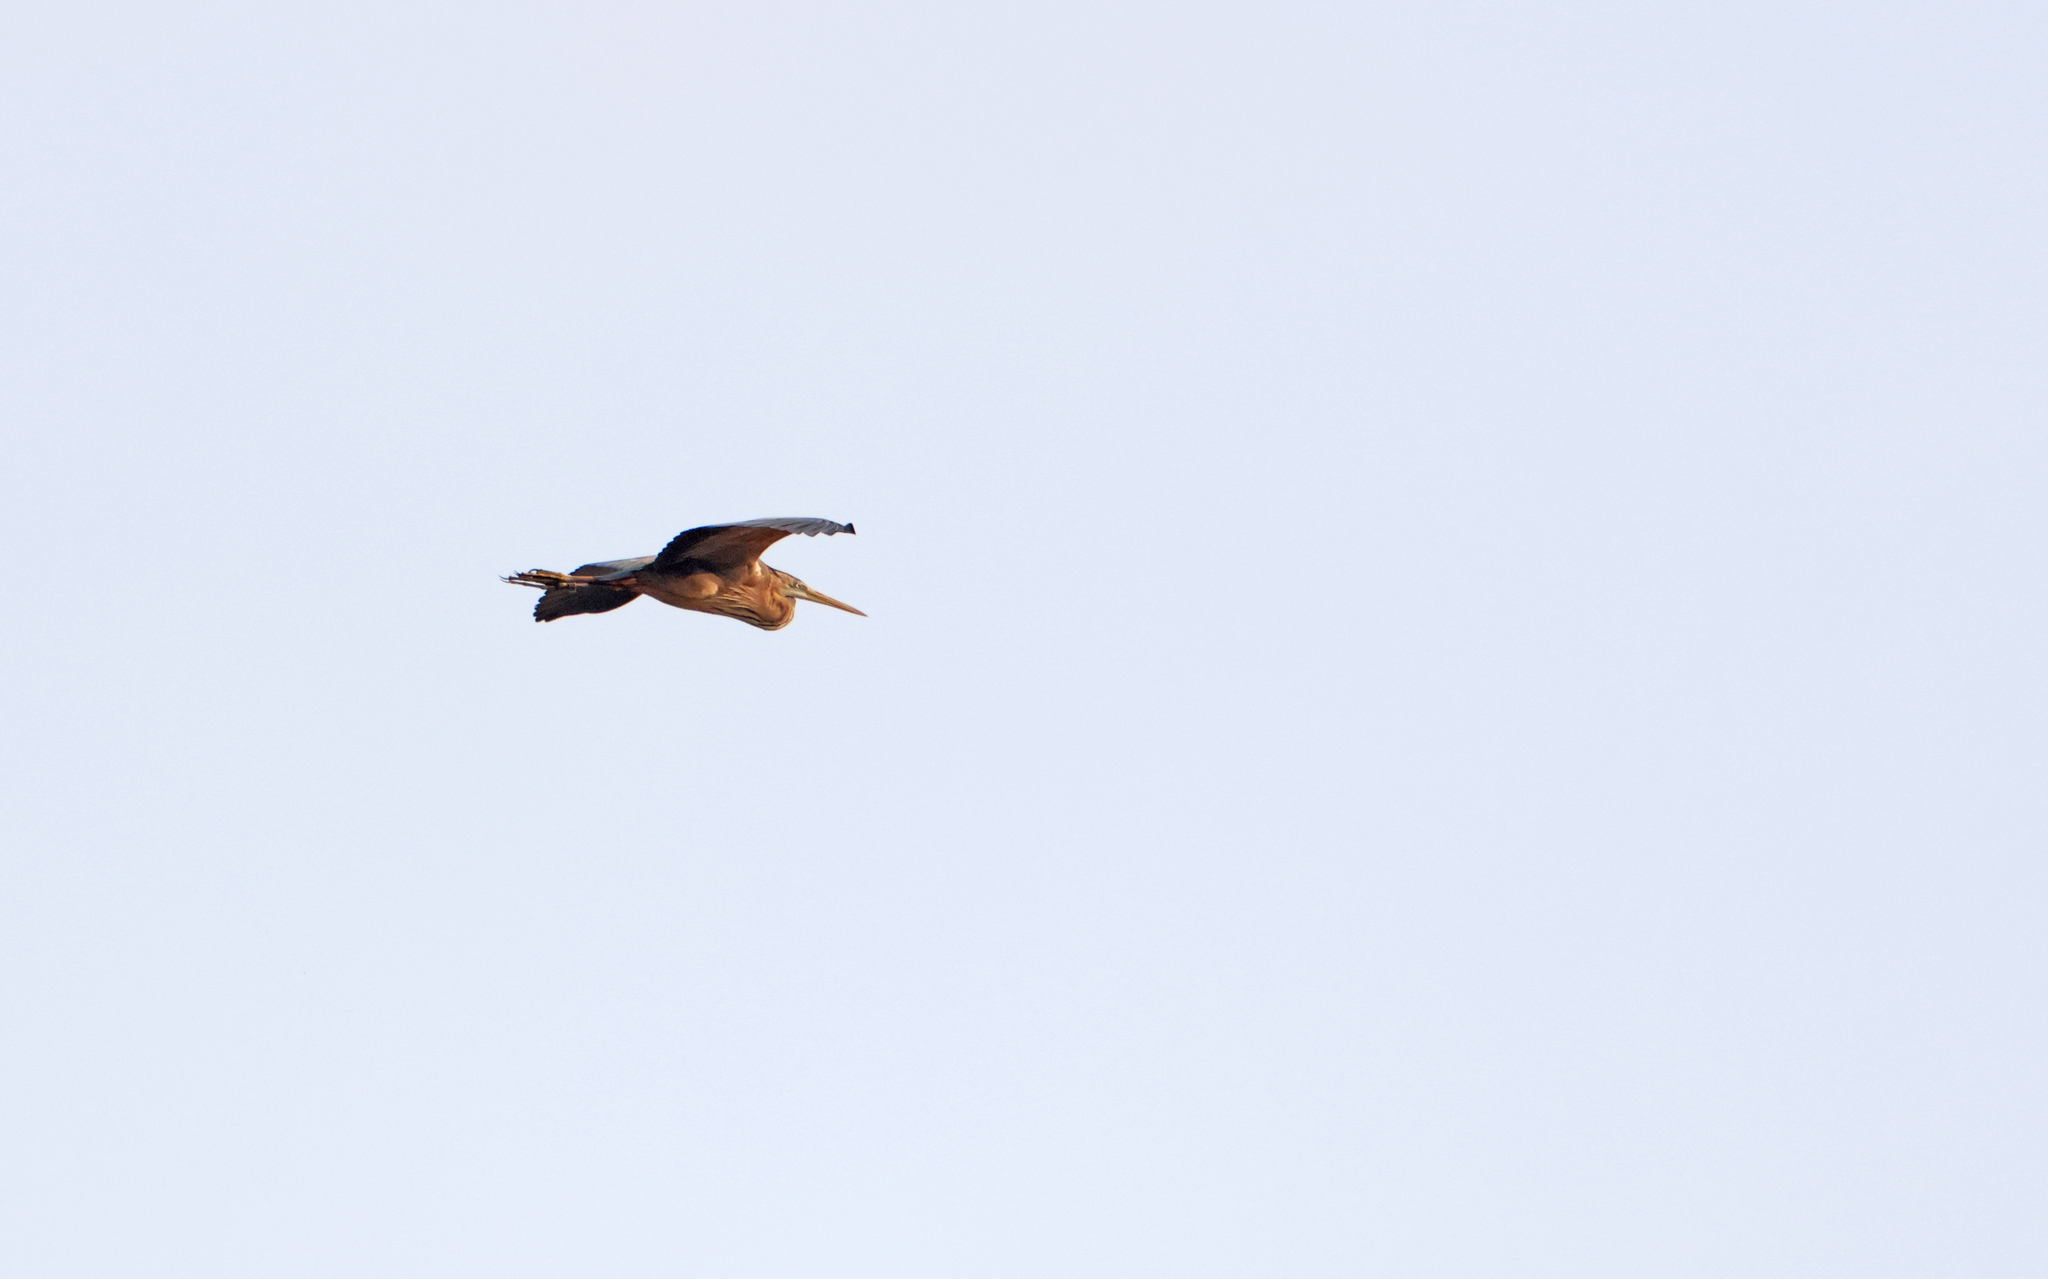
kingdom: Animalia
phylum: Chordata
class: Aves
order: Pelecaniformes
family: Ardeidae
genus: Ardea
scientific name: Ardea purpurea
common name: Purple heron
